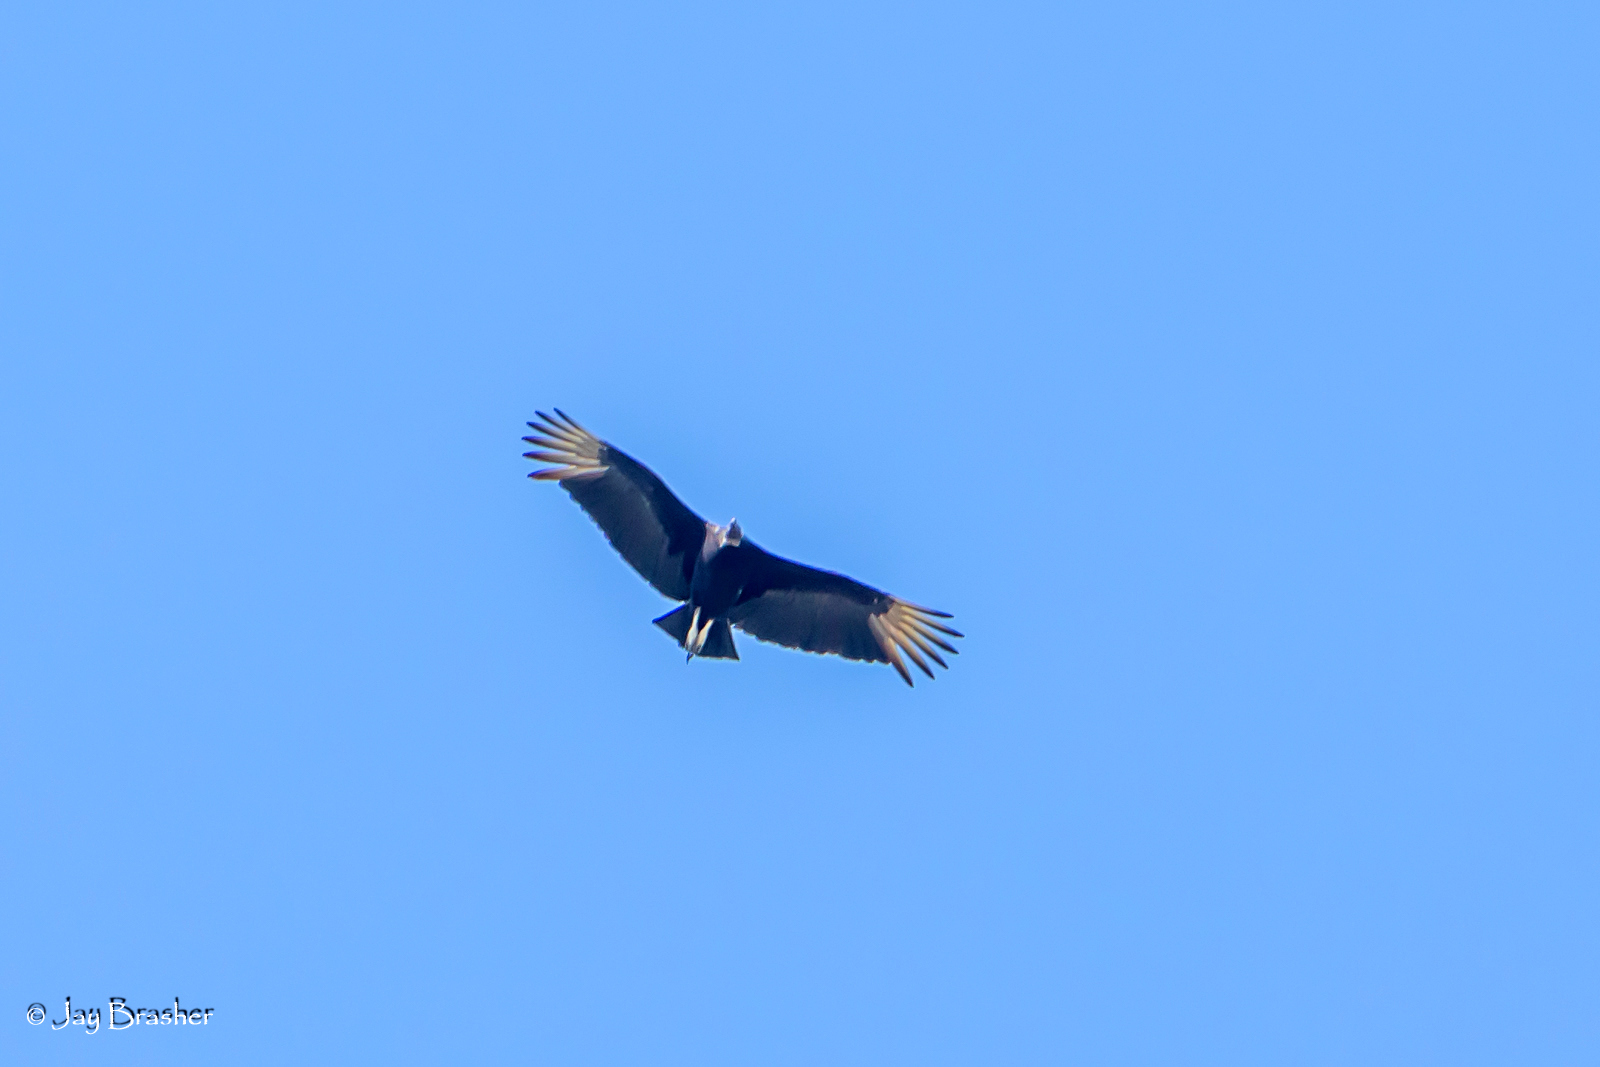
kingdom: Animalia
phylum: Chordata
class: Aves
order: Accipitriformes
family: Cathartidae
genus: Coragyps
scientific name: Coragyps atratus
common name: Black vulture
